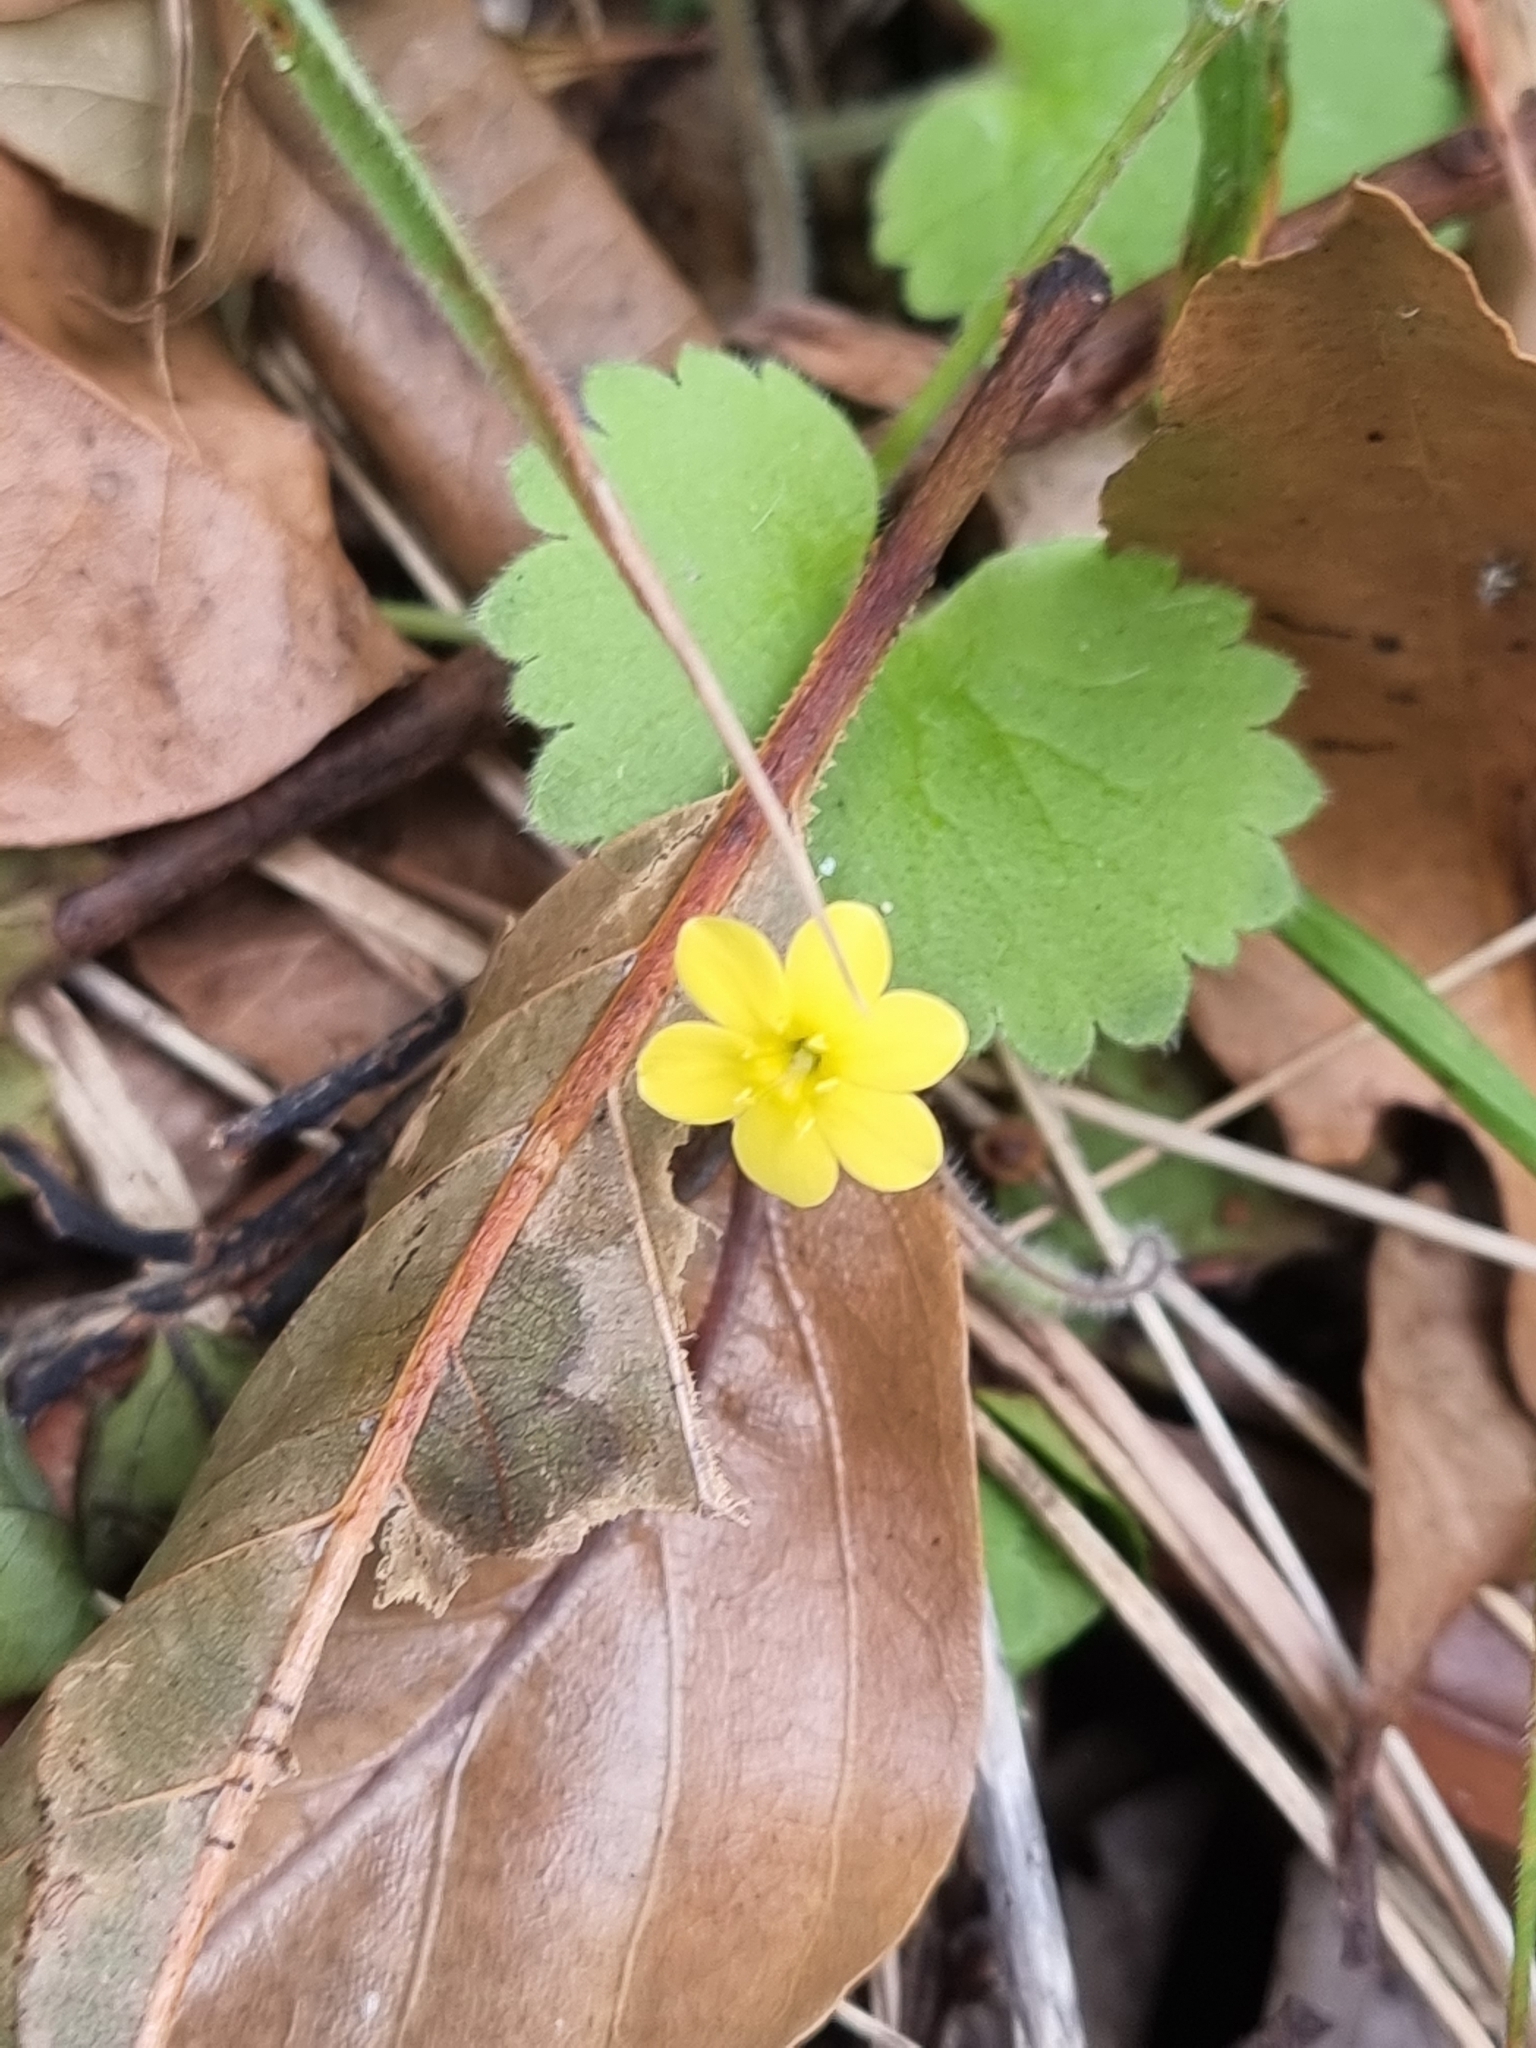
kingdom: Plantae
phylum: Tracheophyta
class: Magnoliopsida
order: Lamiales
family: Plantaginaceae
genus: Sibthorpia
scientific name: Sibthorpia peregrina
